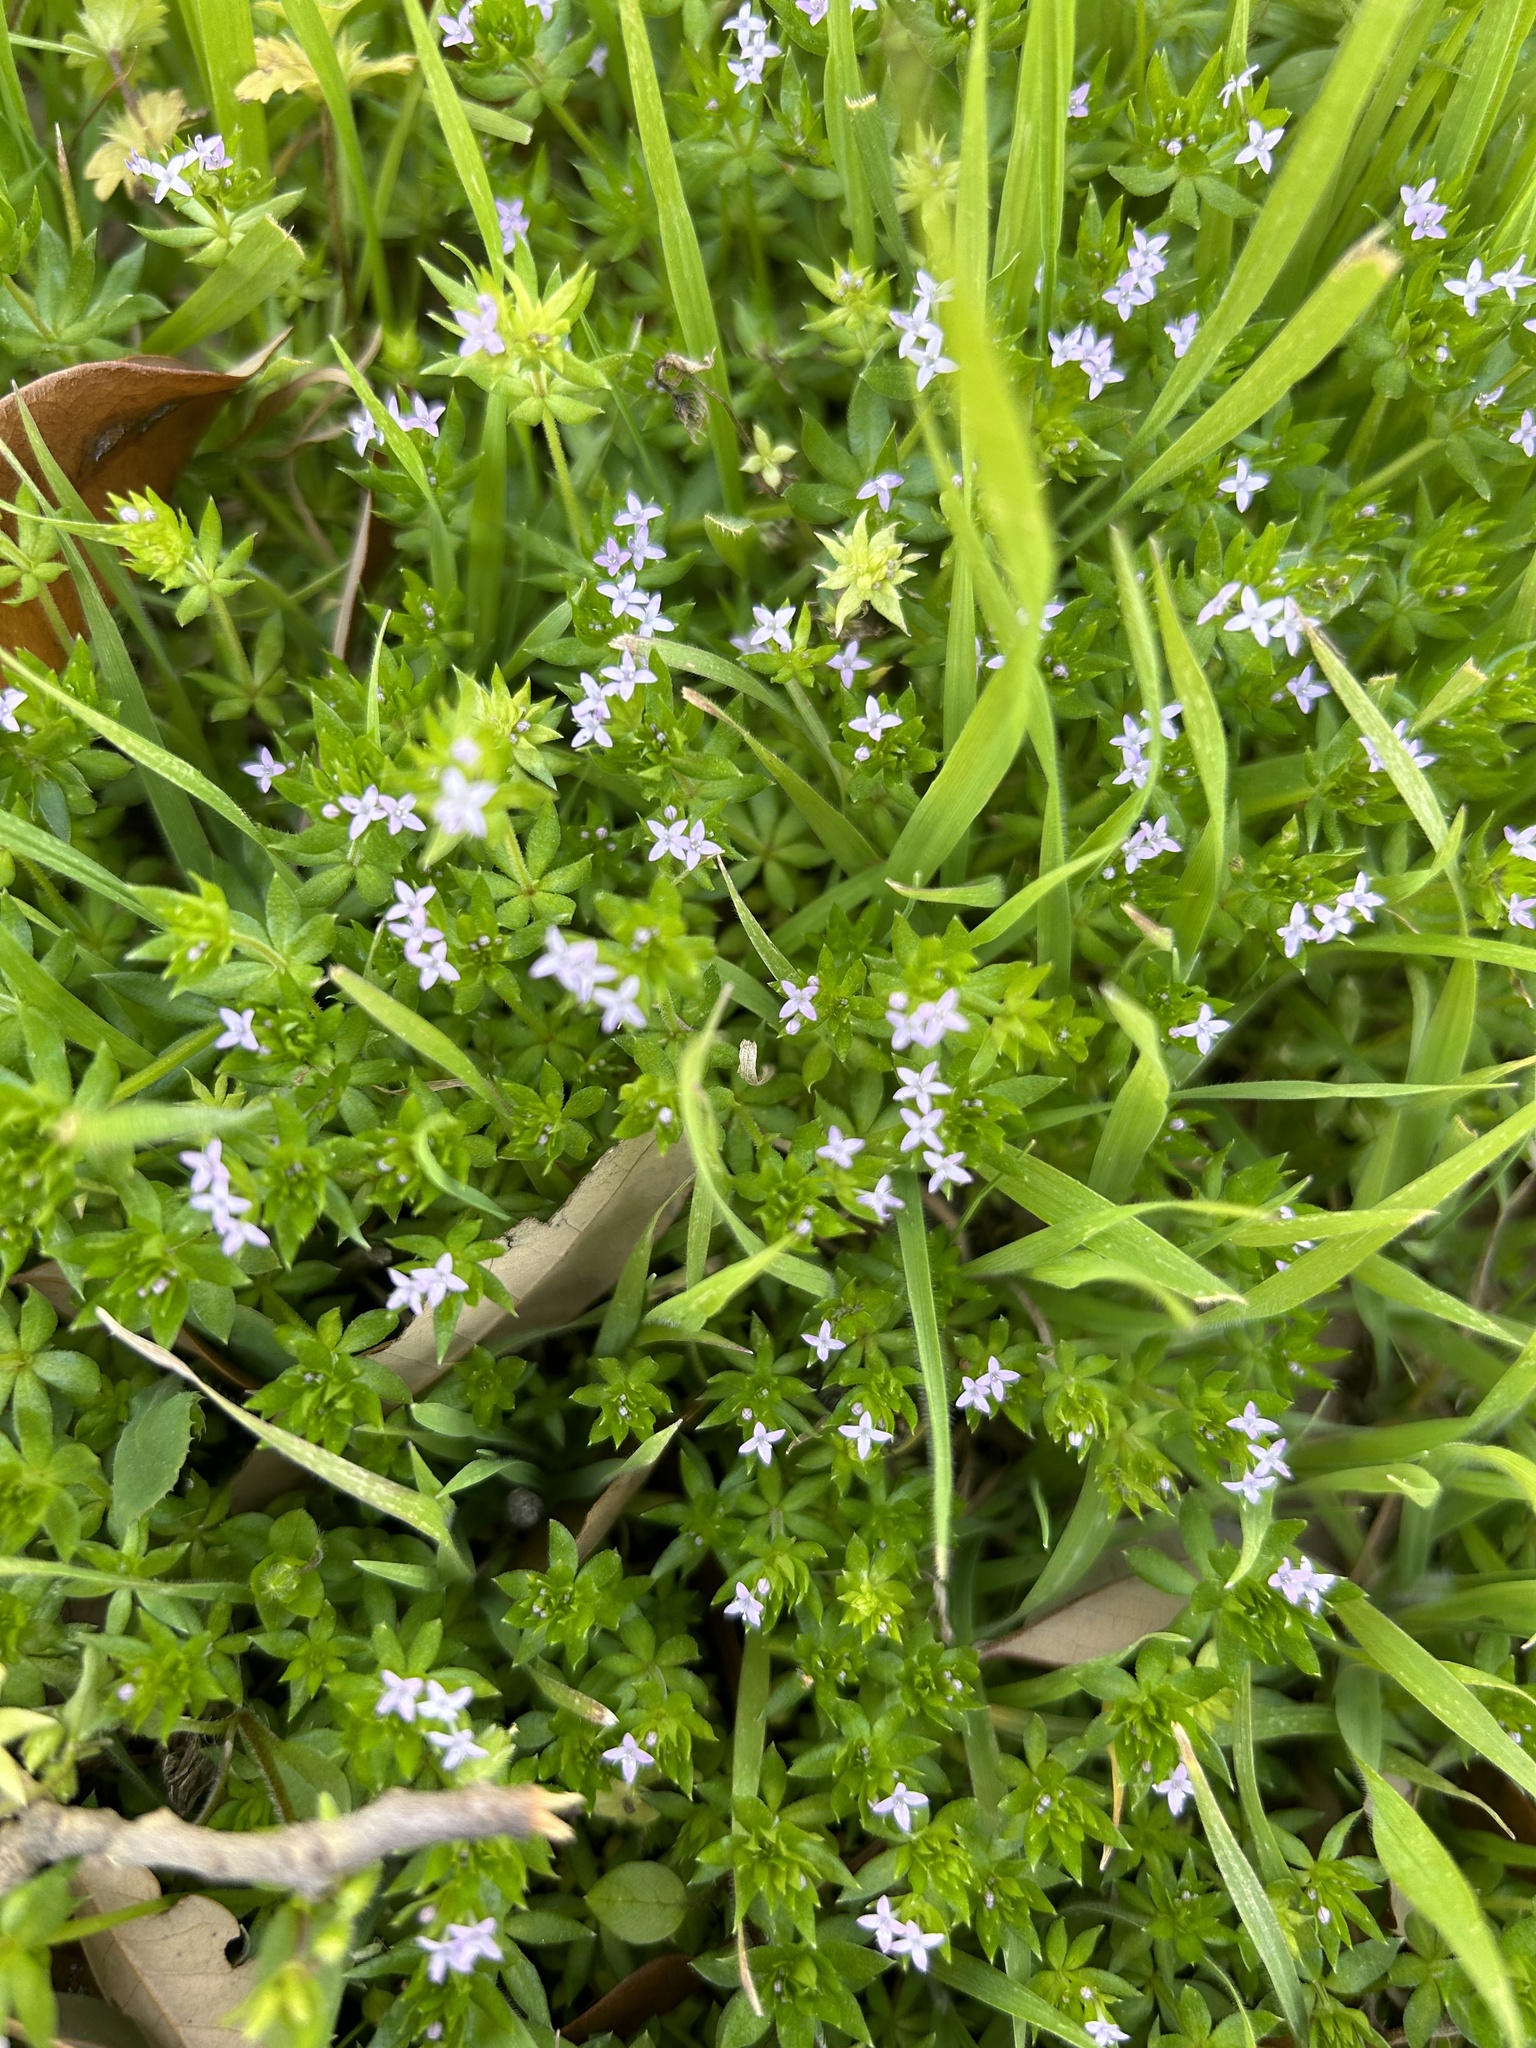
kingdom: Plantae
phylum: Tracheophyta
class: Magnoliopsida
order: Gentianales
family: Rubiaceae
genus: Sherardia
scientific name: Sherardia arvensis
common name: Field madder
